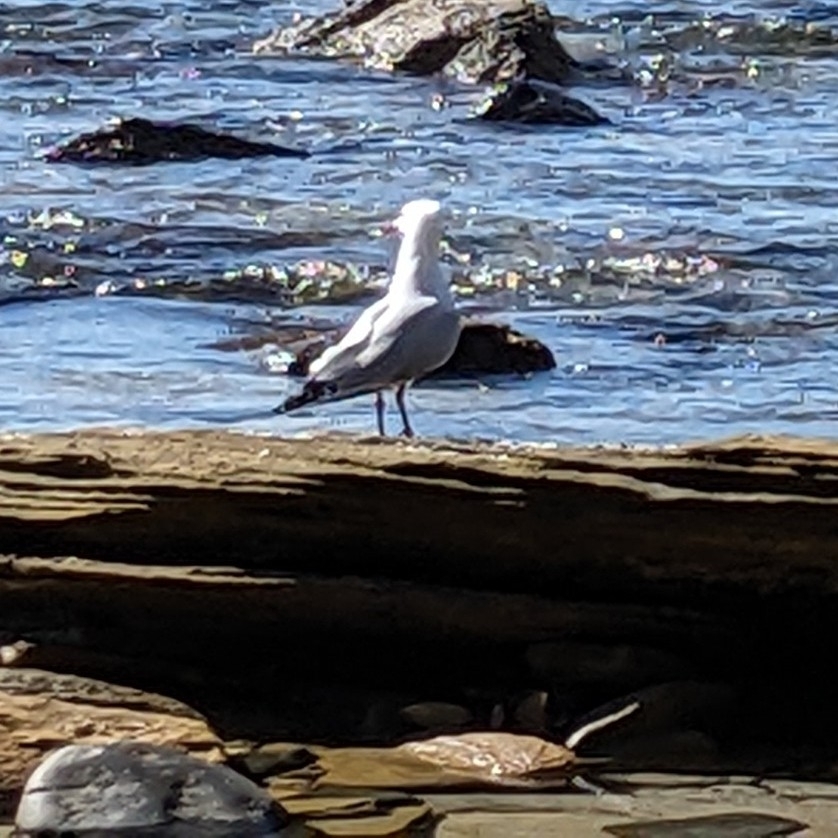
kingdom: Animalia
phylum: Chordata
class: Aves
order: Charadriiformes
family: Laridae
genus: Chroicocephalus
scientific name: Chroicocephalus novaehollandiae
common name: Silver gull
